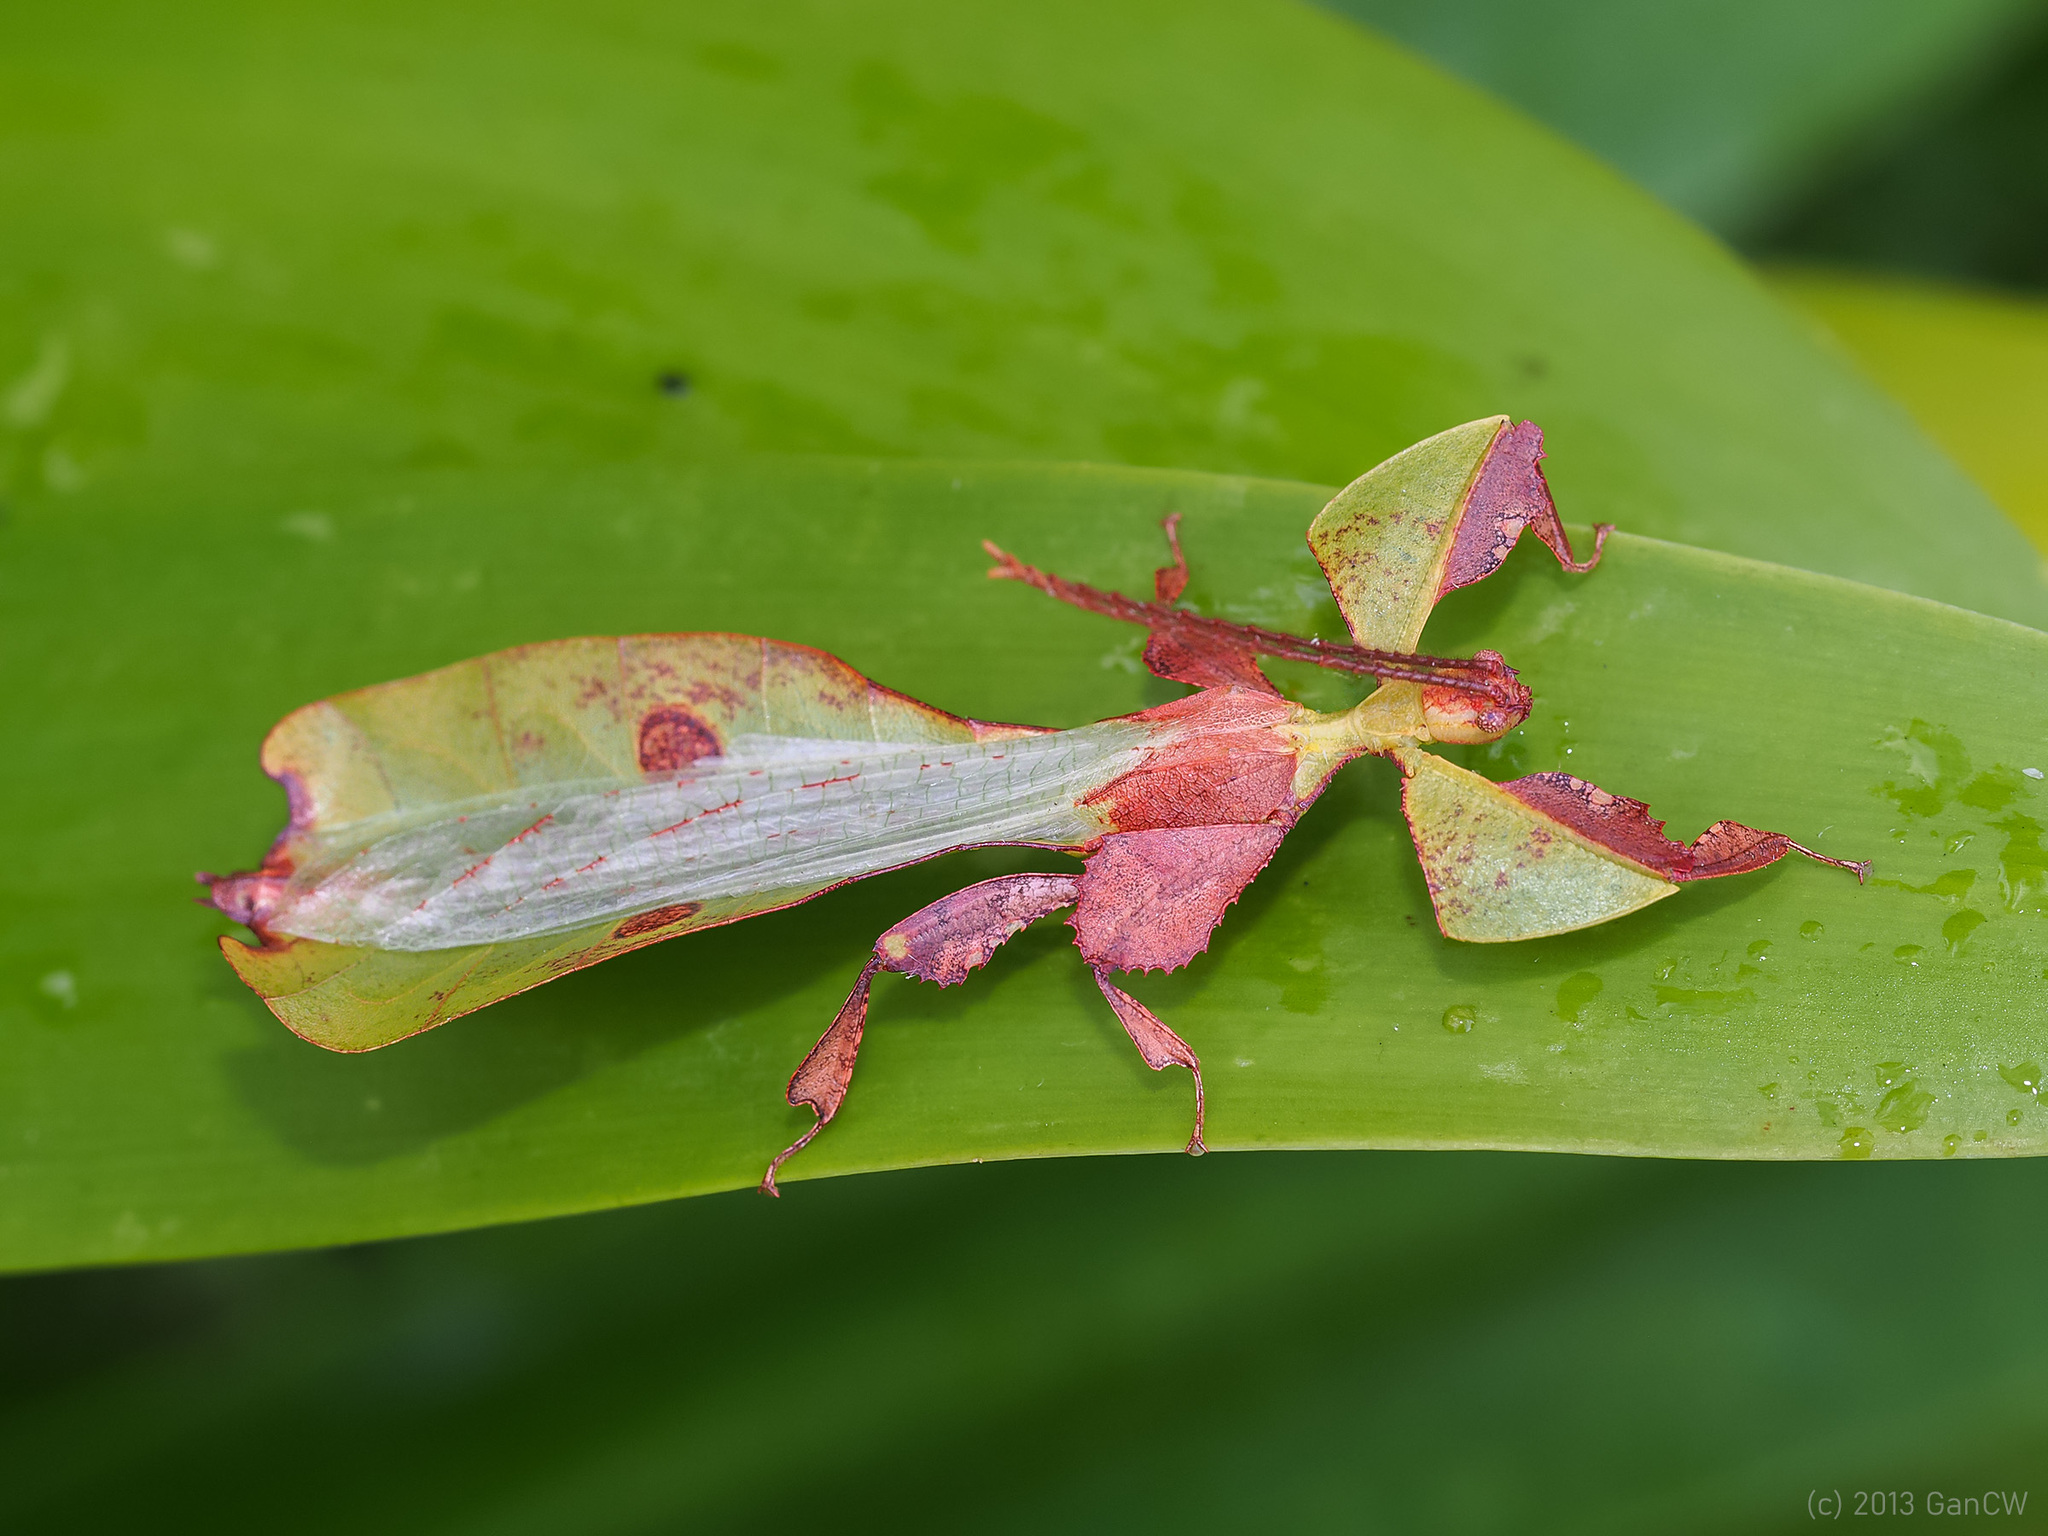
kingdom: Animalia
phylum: Arthropoda
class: Insecta
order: Phasmida
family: Phylliidae
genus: Pulchriphyllium
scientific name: Pulchriphyllium abdulfatahi
